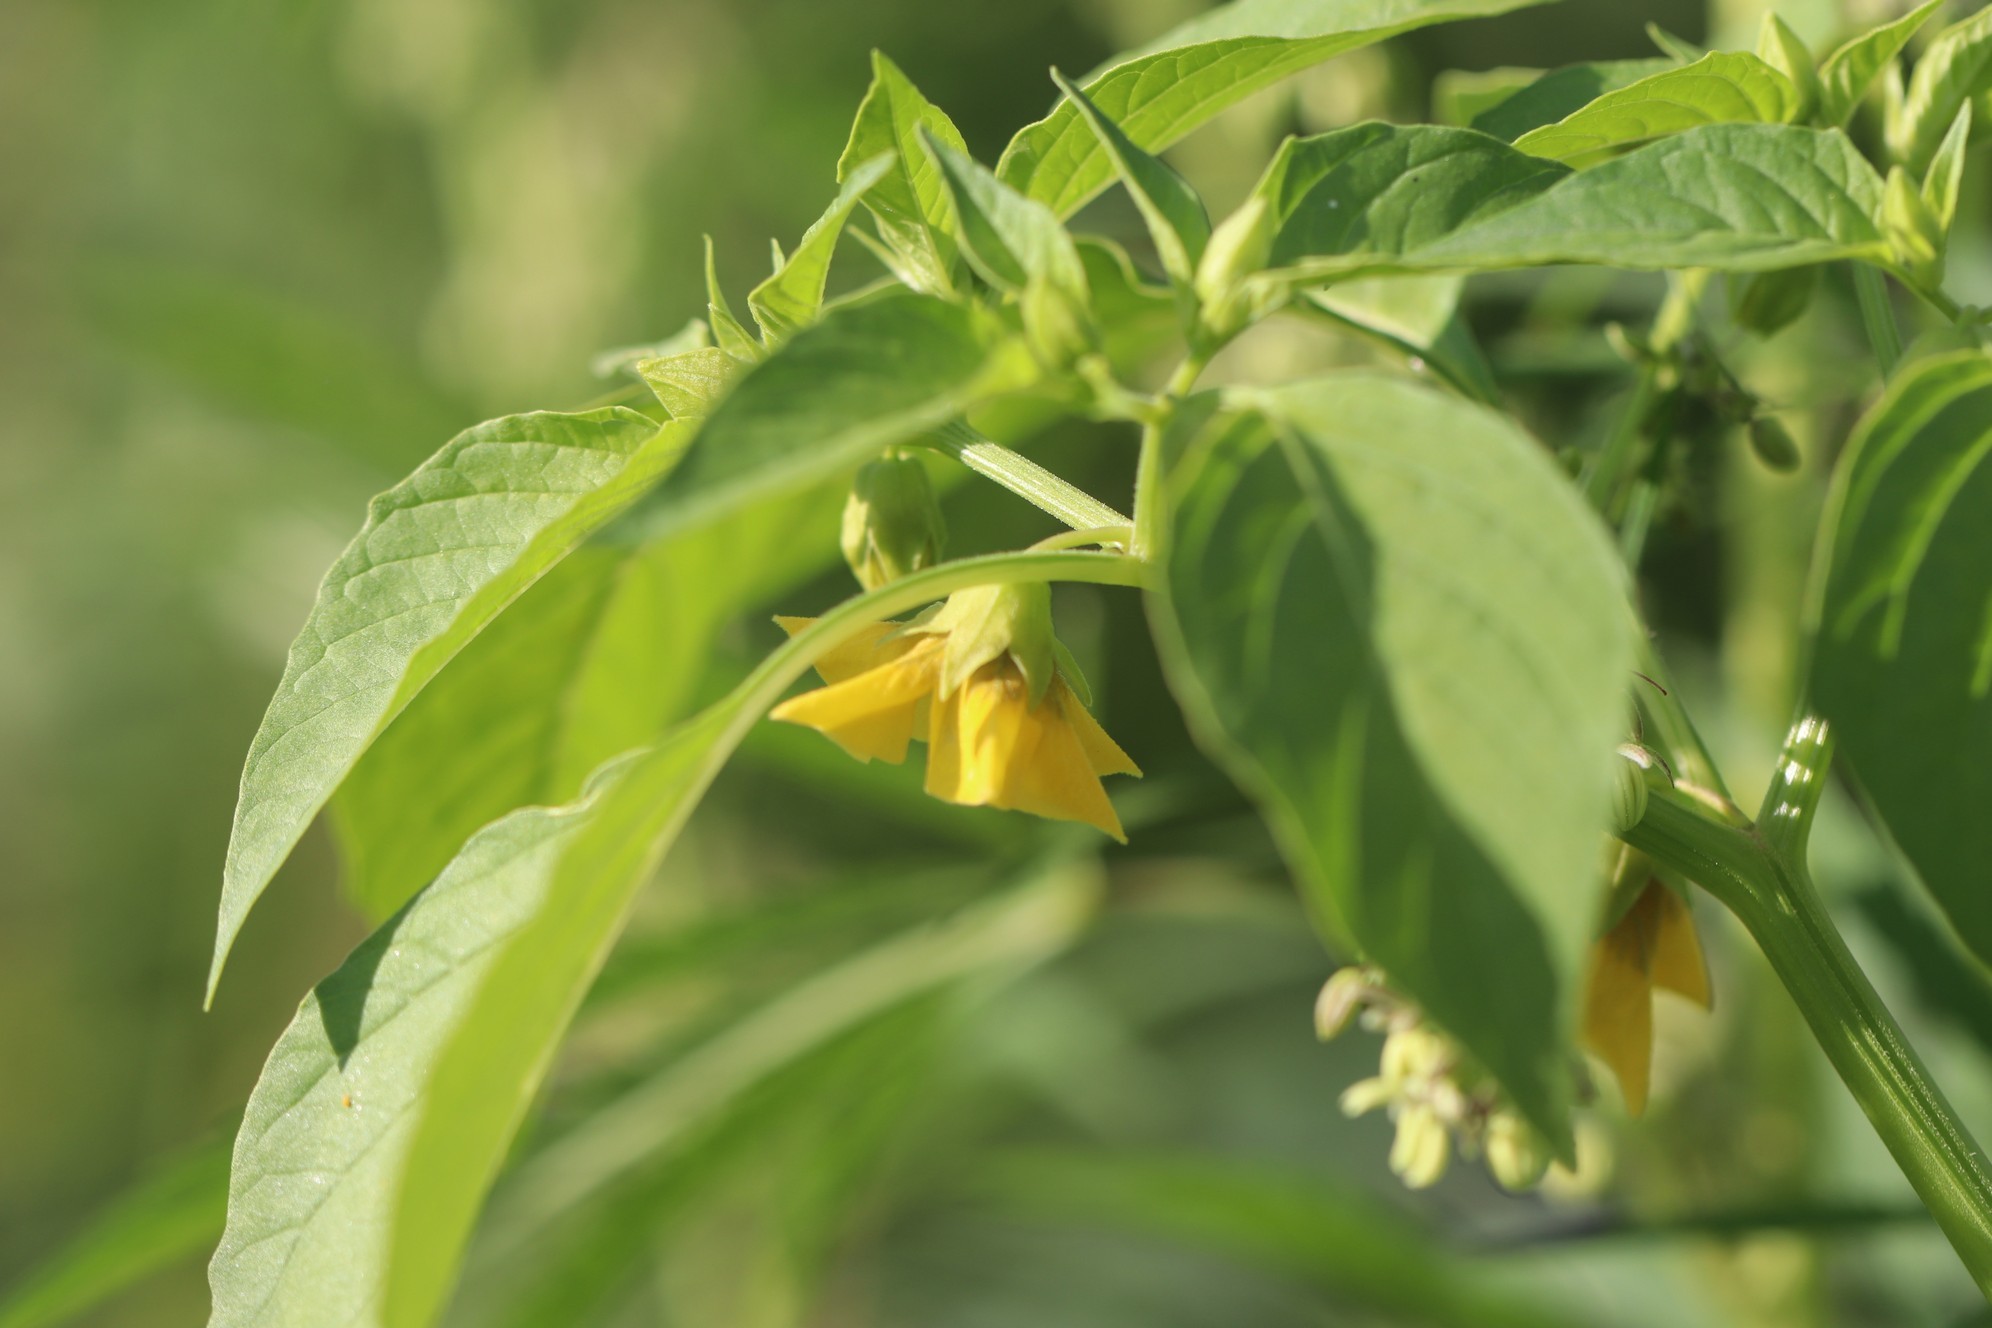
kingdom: Plantae
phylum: Tracheophyta
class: Magnoliopsida
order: Solanales
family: Solanaceae
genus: Physalis
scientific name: Physalis philadelphica
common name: Husk-tomato
